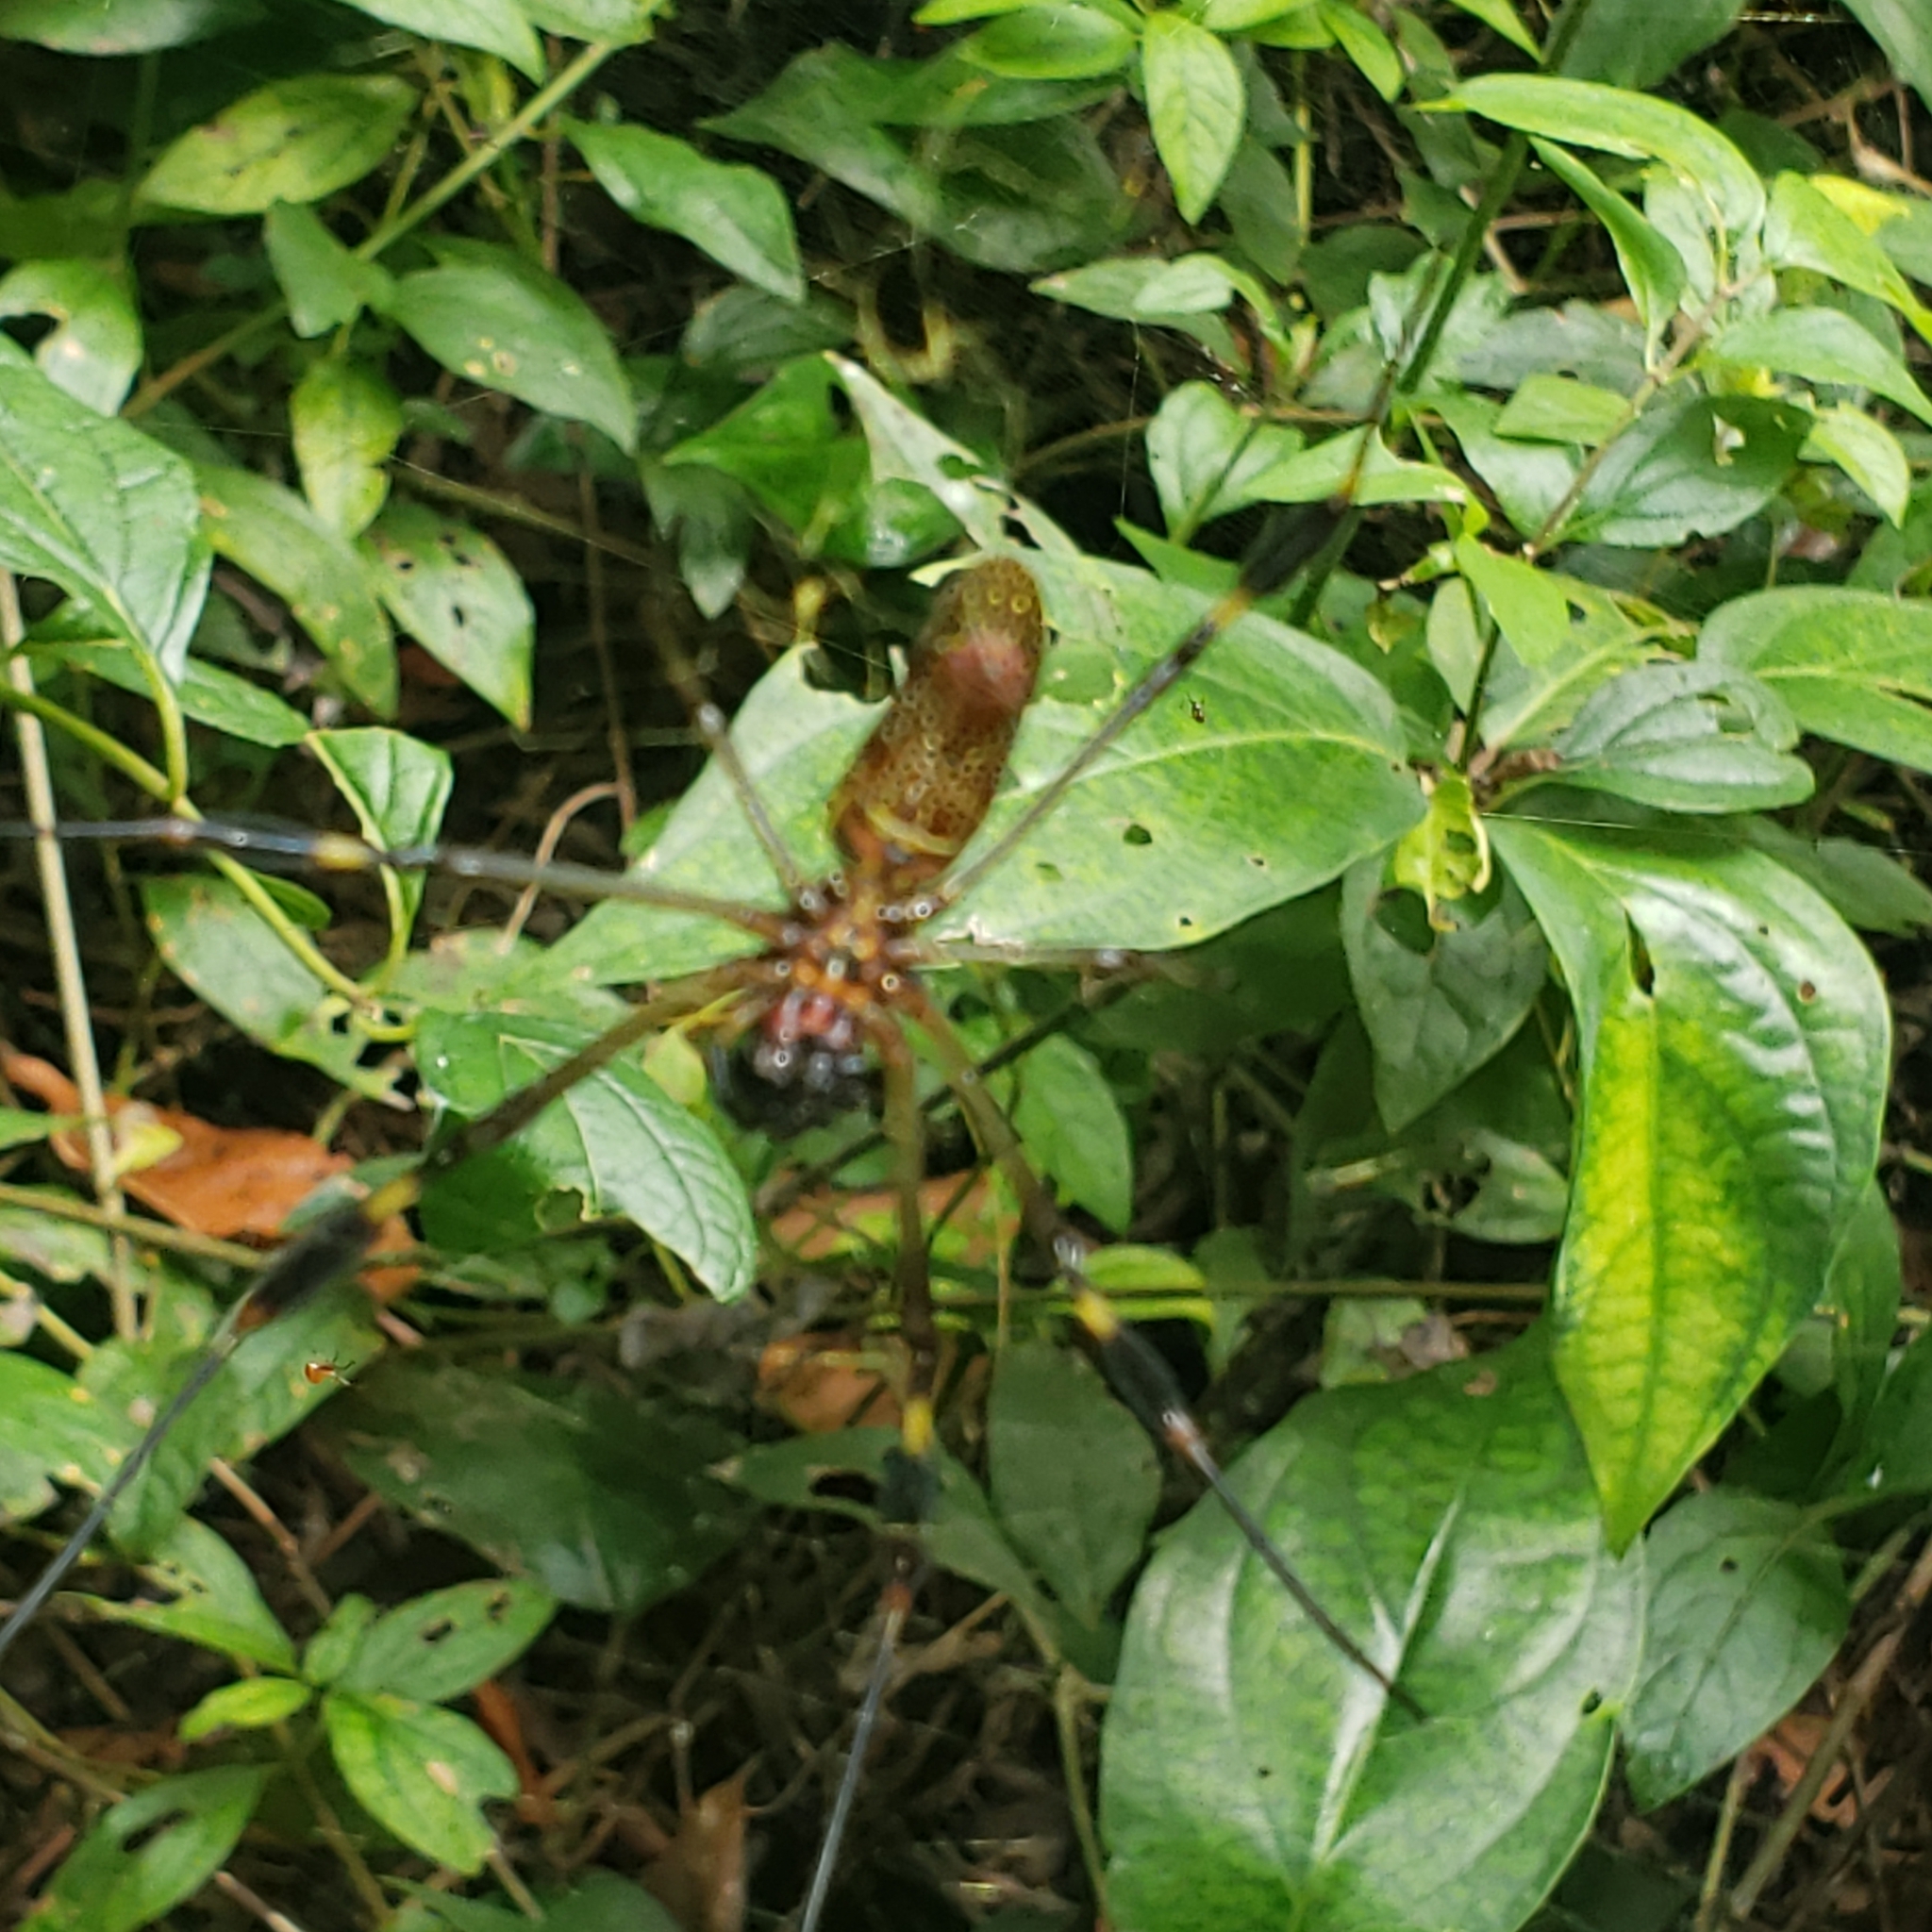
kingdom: Animalia
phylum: Arthropoda
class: Arachnida
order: Araneae
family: Araneidae
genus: Trichonephila
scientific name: Trichonephila clavipes
